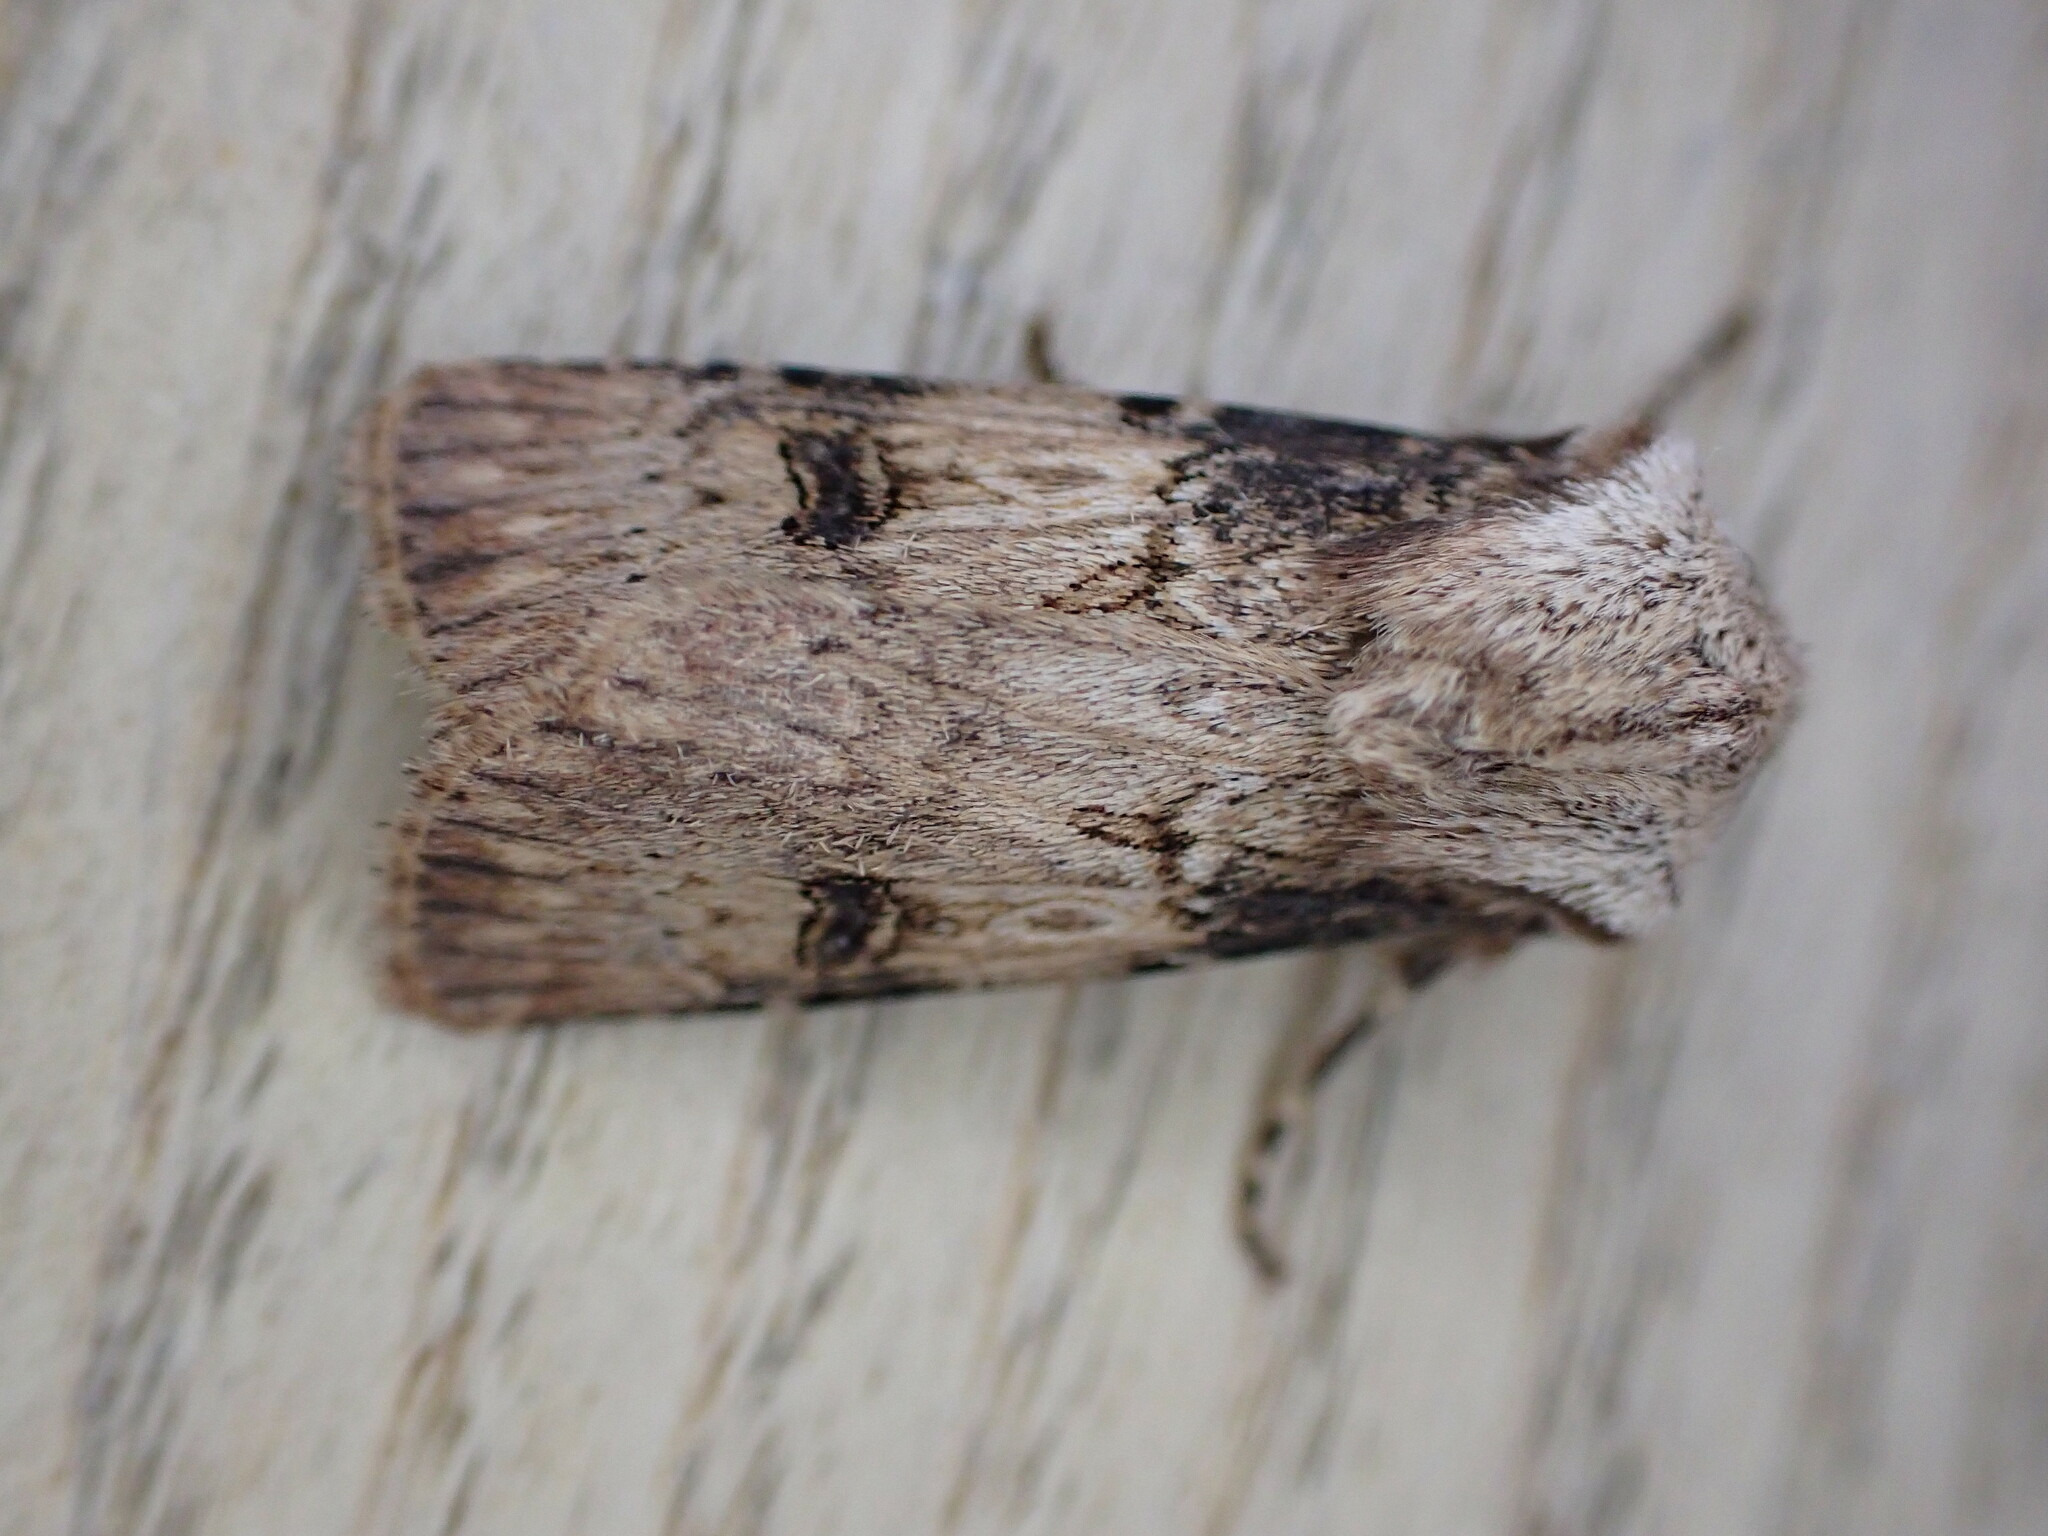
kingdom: Animalia
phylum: Arthropoda
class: Insecta
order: Lepidoptera
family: Noctuidae
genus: Agrotis
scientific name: Agrotis puta
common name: Shuttle-shaped dart
